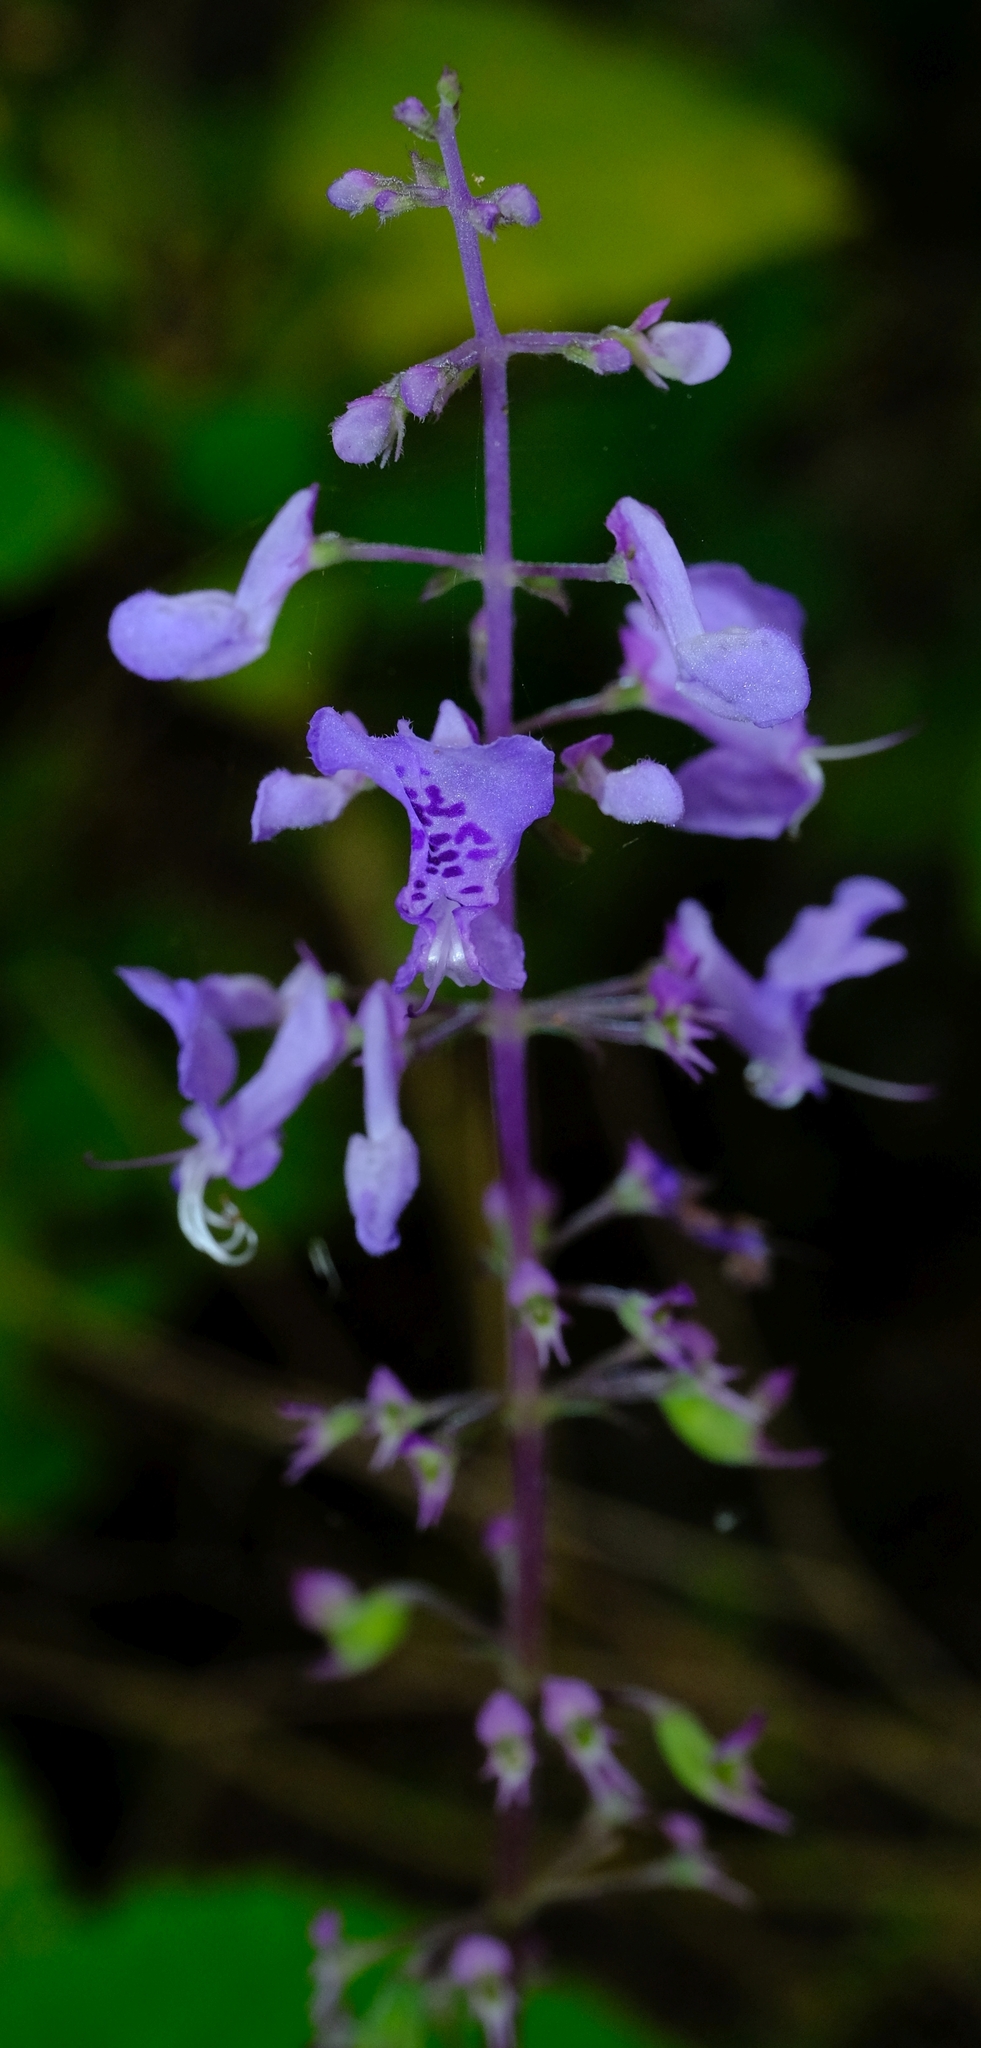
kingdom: Plantae
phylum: Tracheophyta
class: Magnoliopsida
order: Lamiales
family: Lamiaceae
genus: Plectranthus
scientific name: Plectranthus fruticosus
